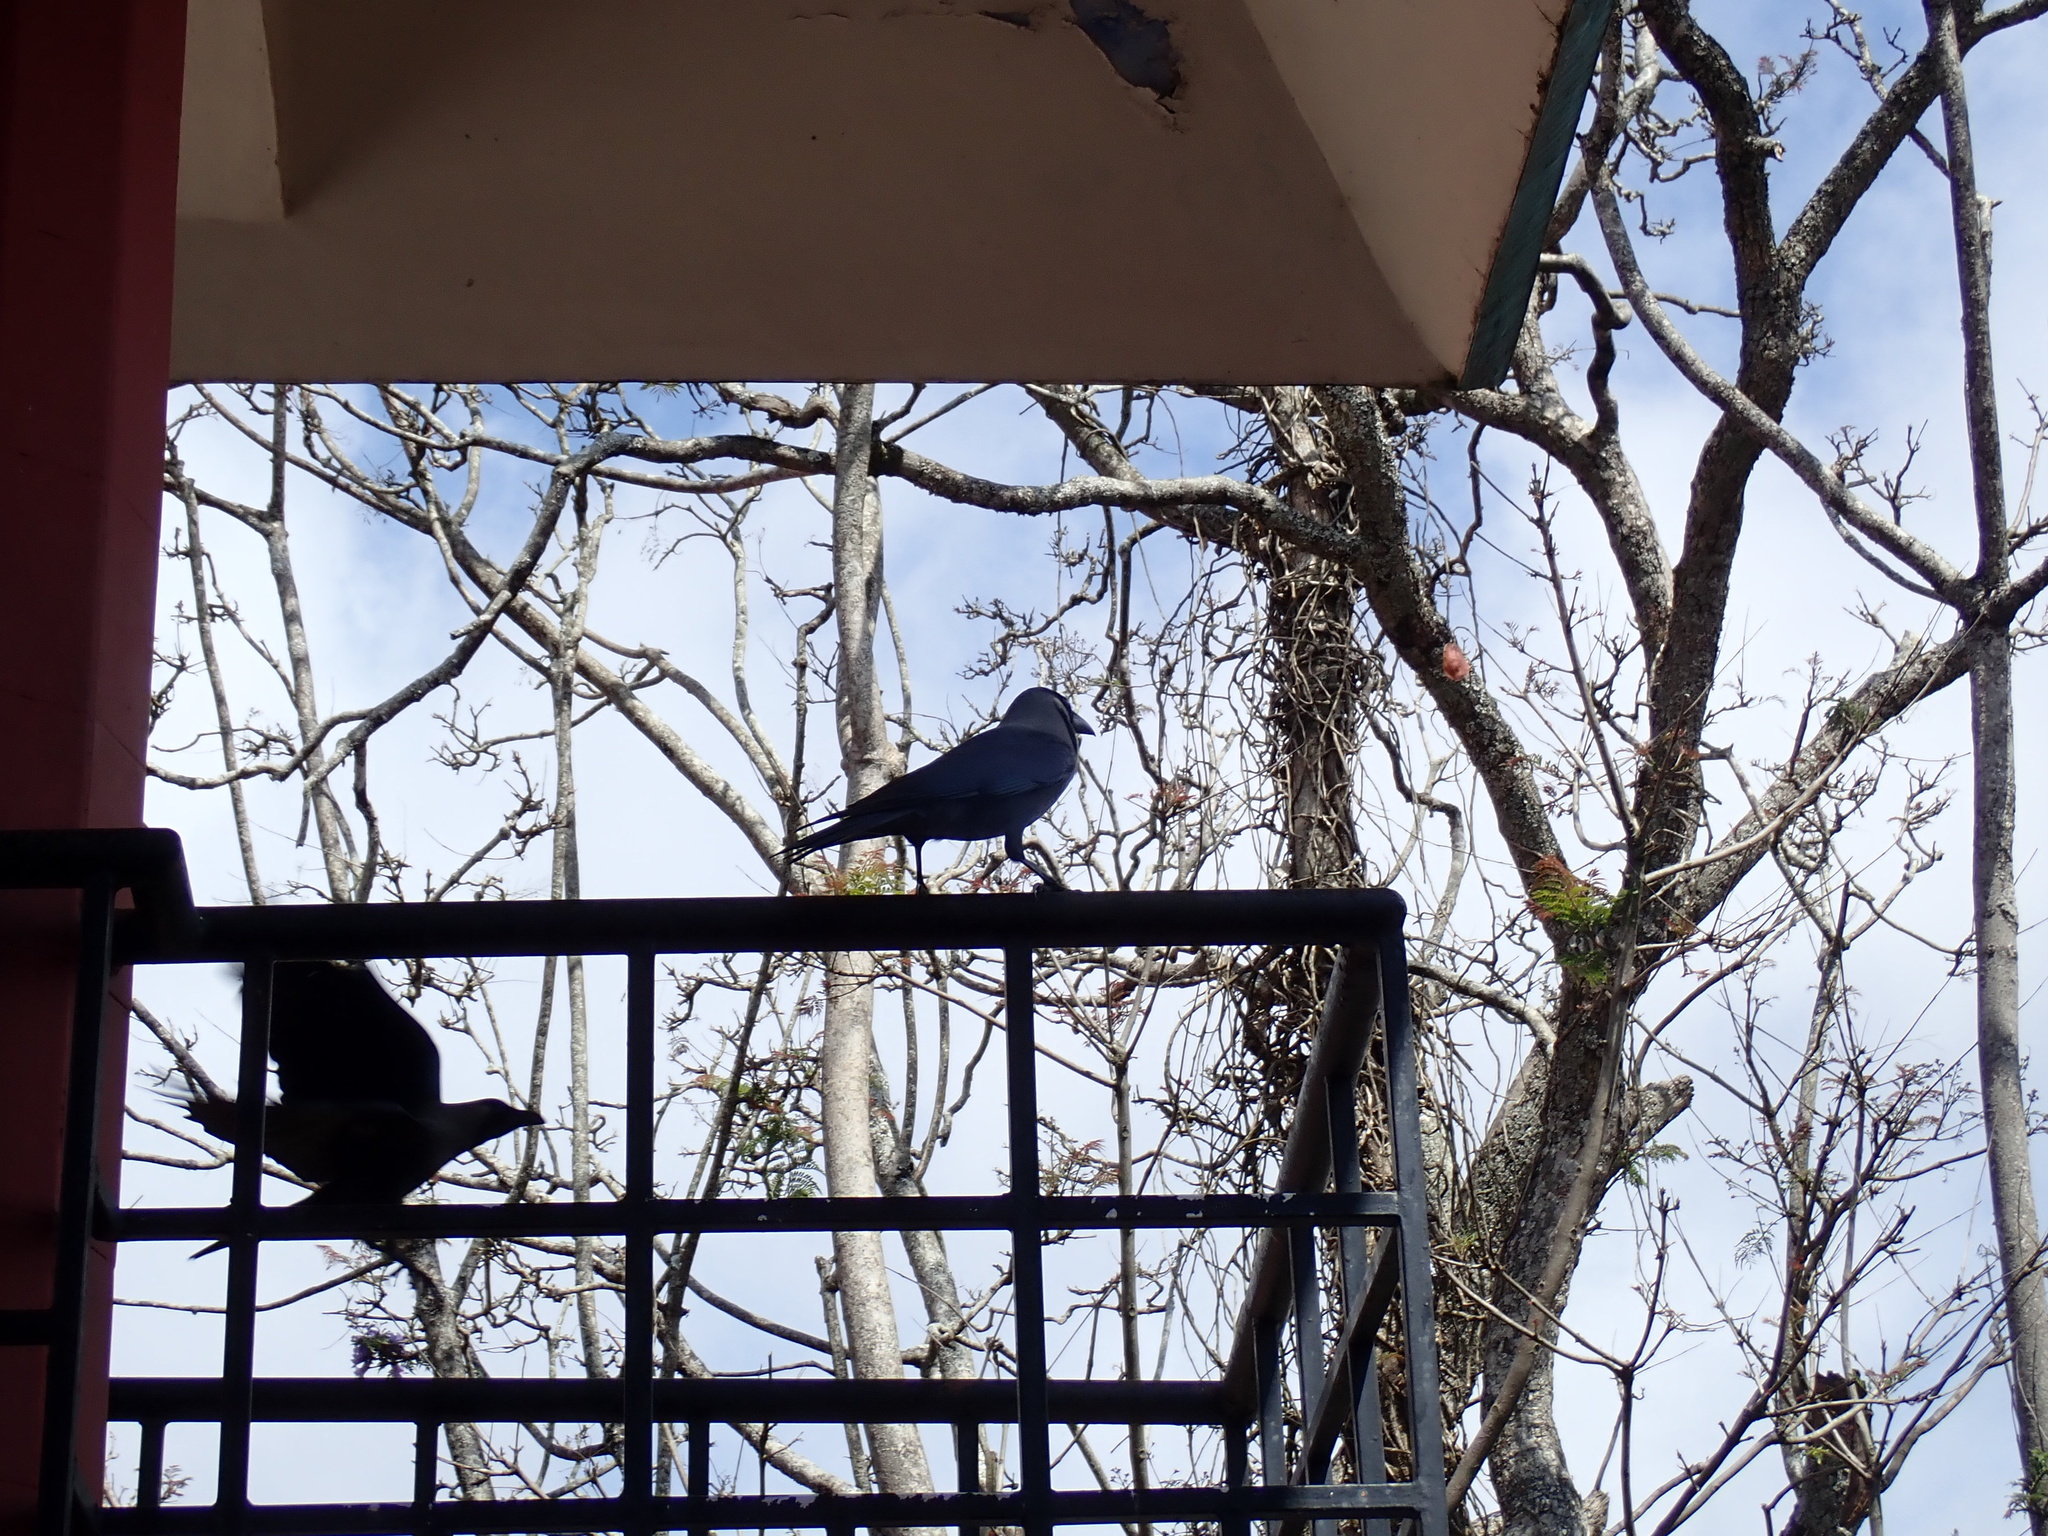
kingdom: Animalia
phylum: Chordata
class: Aves
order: Passeriformes
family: Corvidae
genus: Corvus
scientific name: Corvus splendens
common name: House crow
